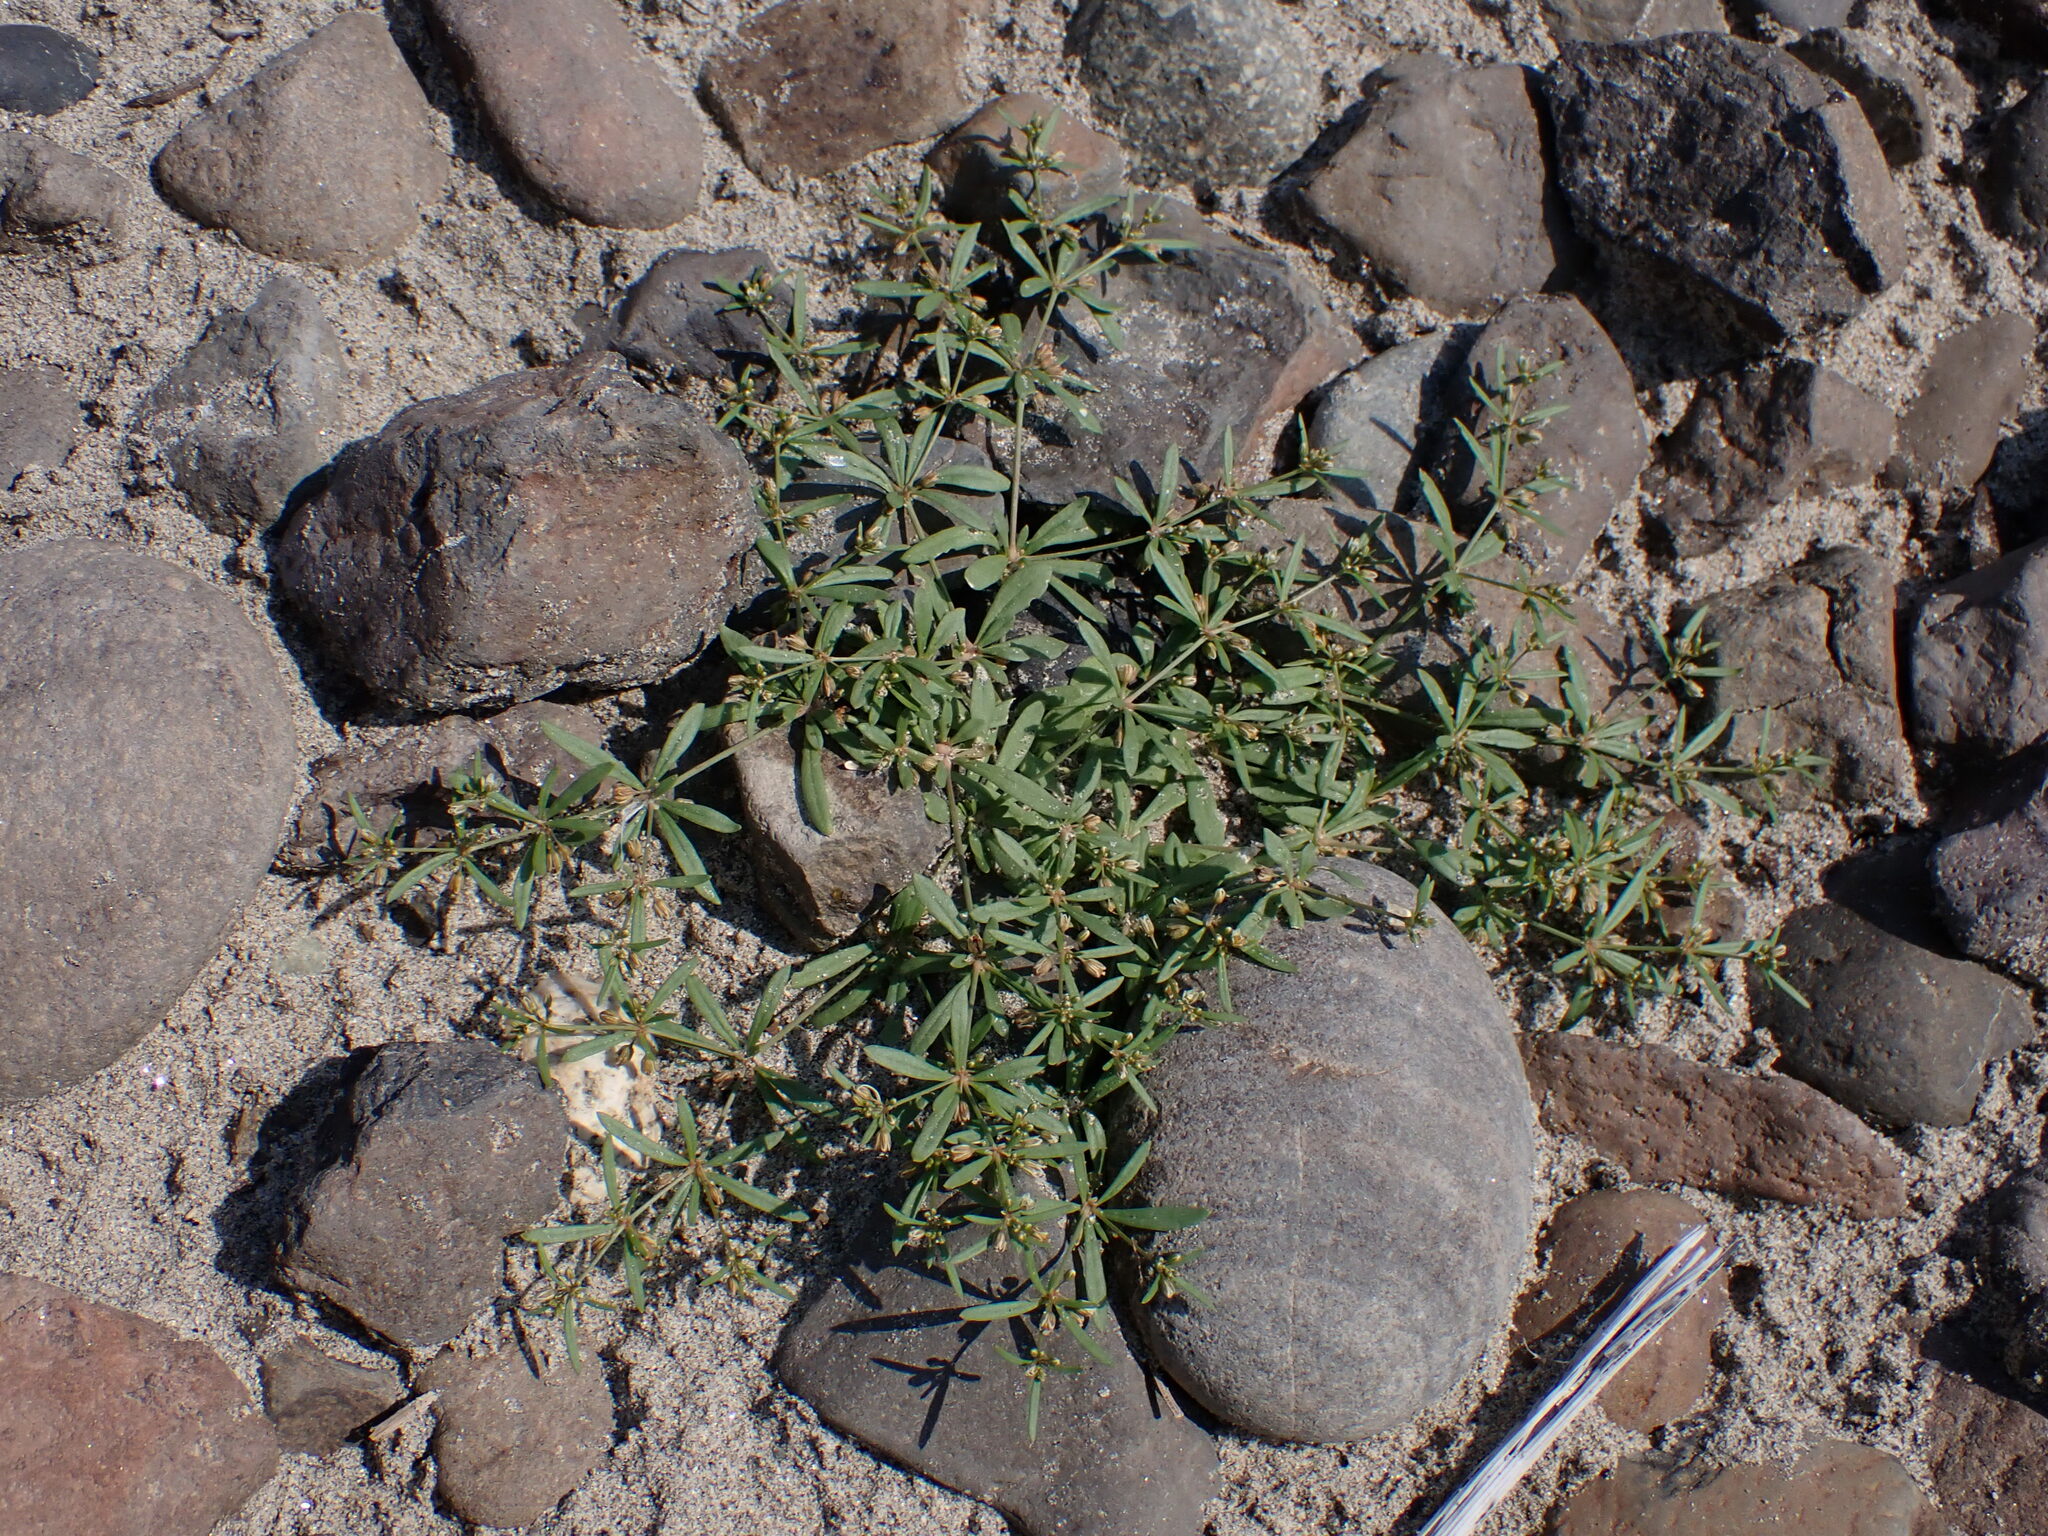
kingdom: Plantae
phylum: Tracheophyta
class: Magnoliopsida
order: Caryophyllales
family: Molluginaceae
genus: Mollugo
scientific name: Mollugo verticillata
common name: Green carpetweed
